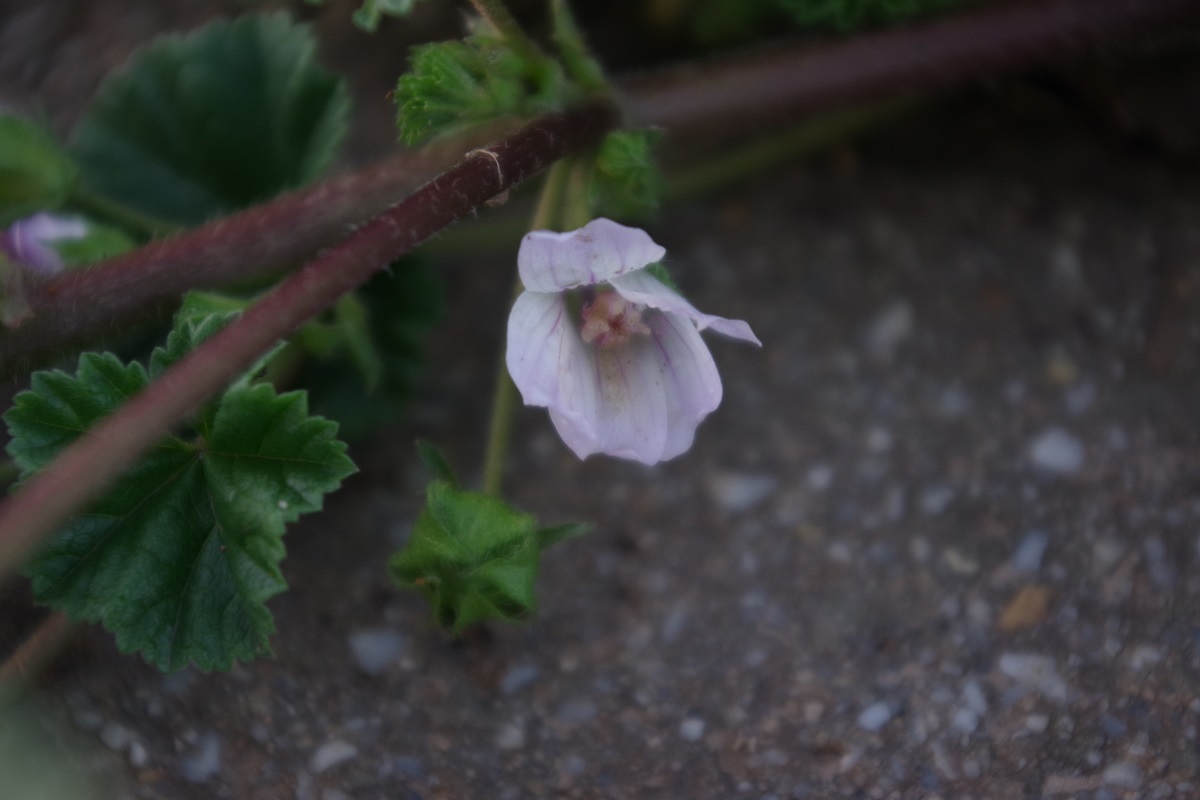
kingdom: Plantae
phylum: Tracheophyta
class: Magnoliopsida
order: Malvales
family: Malvaceae
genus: Malva
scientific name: Malva neglecta
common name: Common mallow
